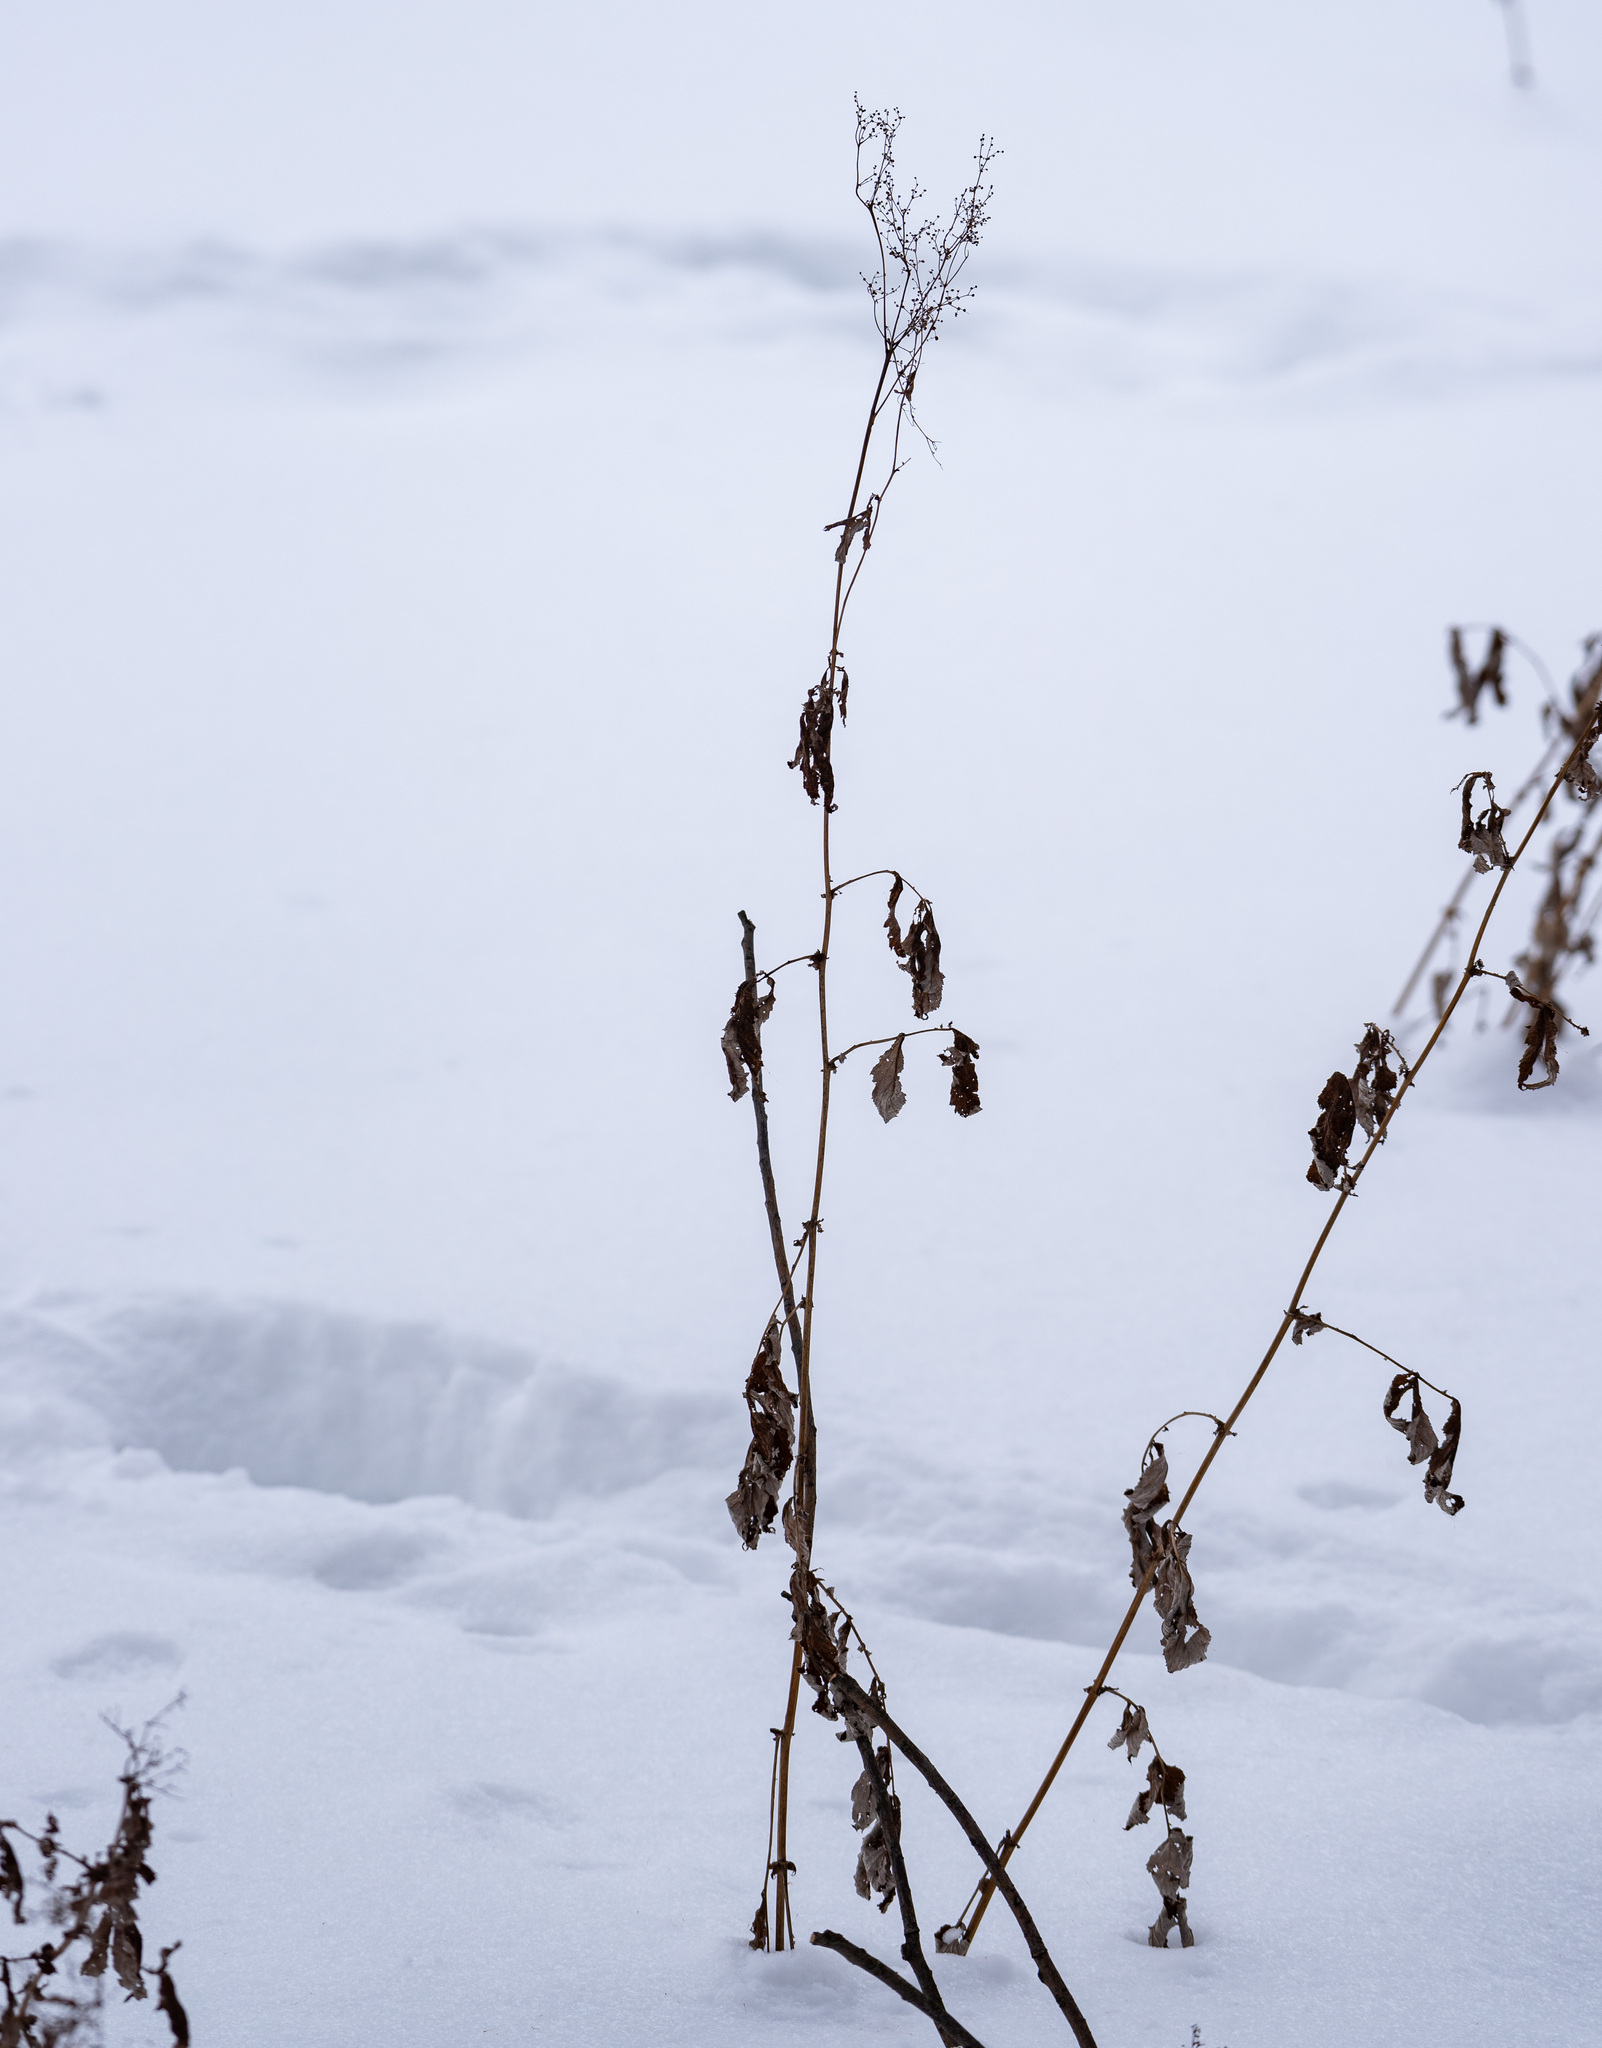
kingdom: Plantae
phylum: Tracheophyta
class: Magnoliopsida
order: Rosales
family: Rosaceae
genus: Filipendula
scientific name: Filipendula ulmaria
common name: Meadowsweet
